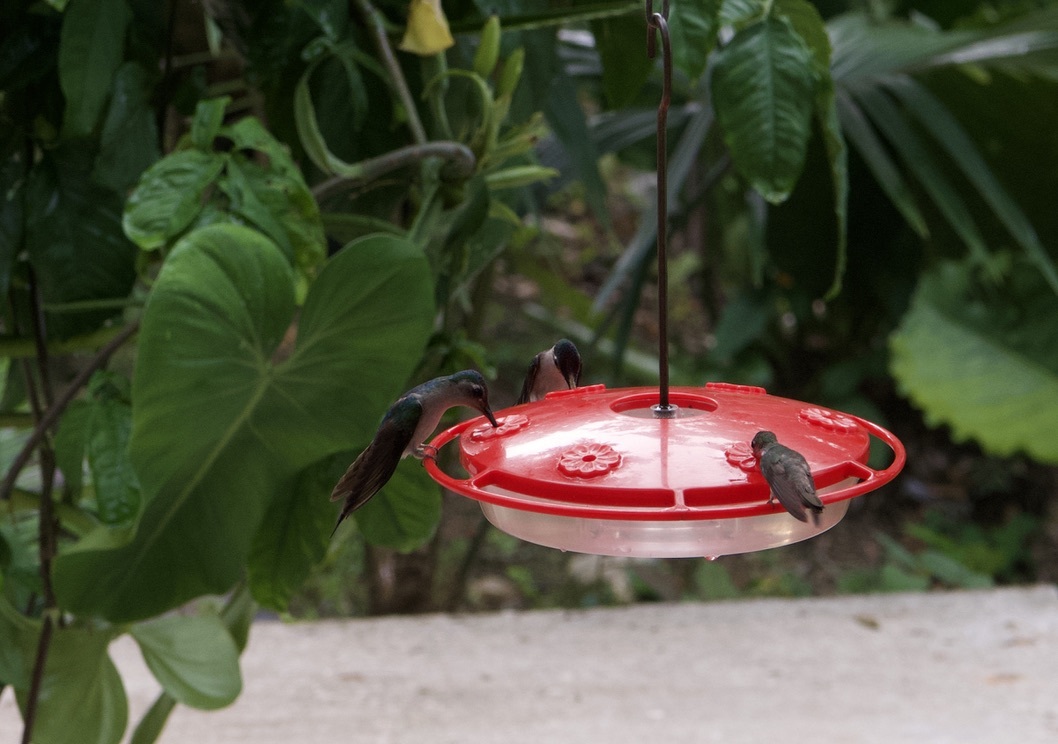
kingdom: Animalia
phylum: Chordata
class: Aves
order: Apodiformes
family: Trochilidae
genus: Pampa
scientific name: Pampa curvipennis
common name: Curve-winged sabrewing
